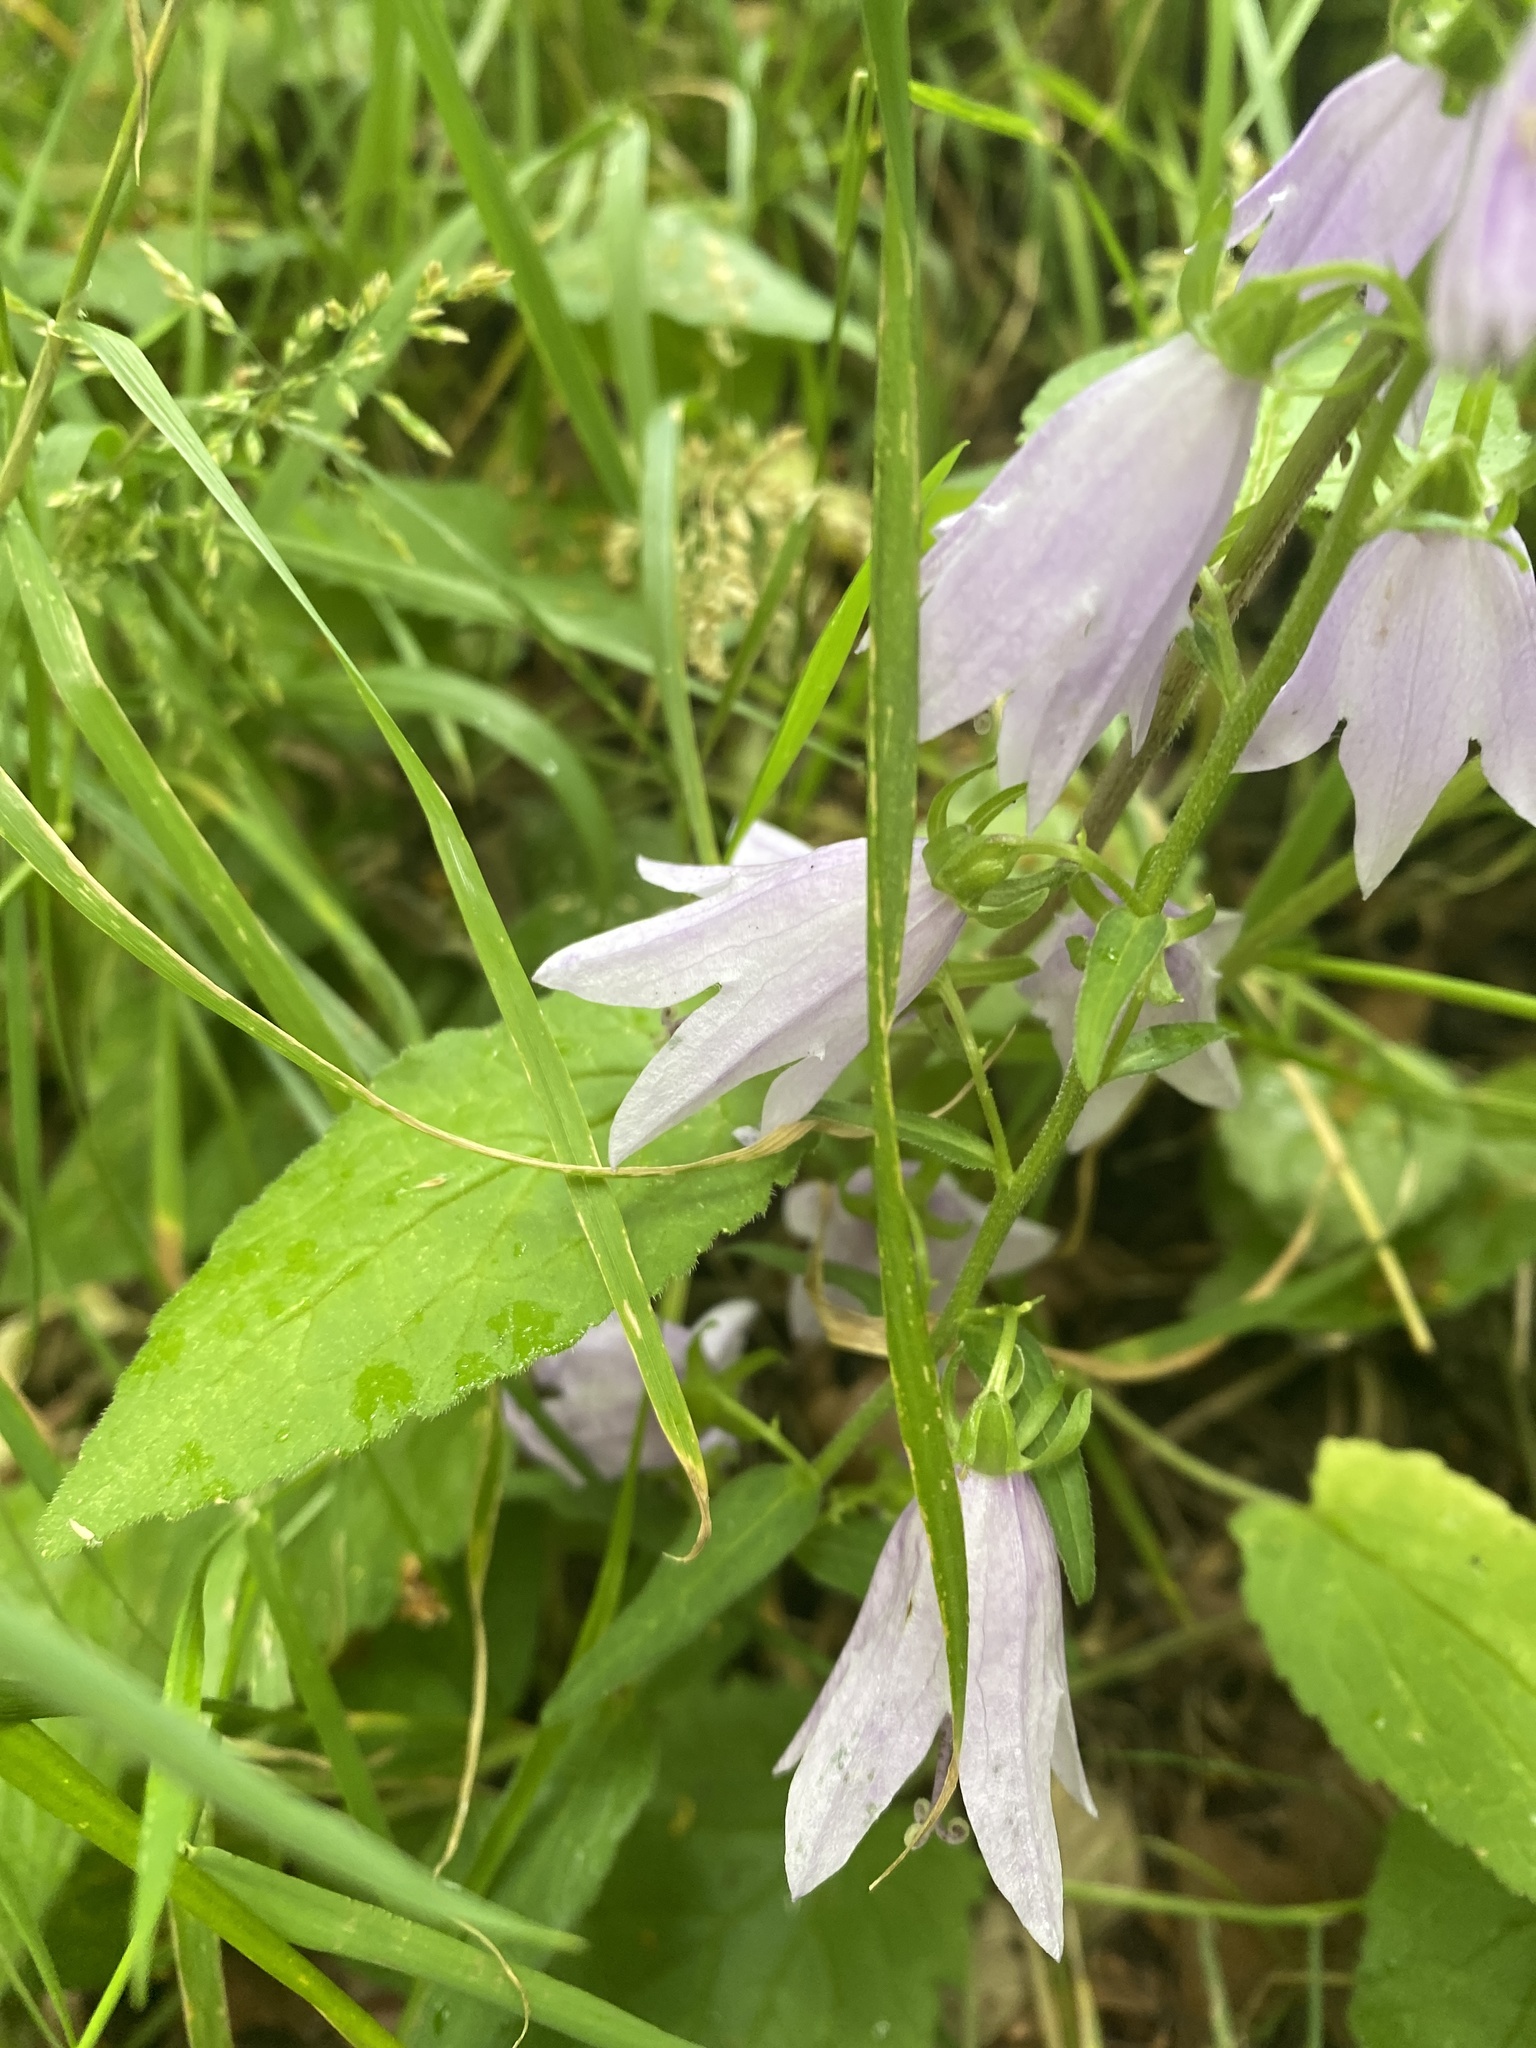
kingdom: Plantae
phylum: Tracheophyta
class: Magnoliopsida
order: Asterales
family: Campanulaceae
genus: Campanula
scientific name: Campanula trachelium
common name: Nettle-leaved bellflower
